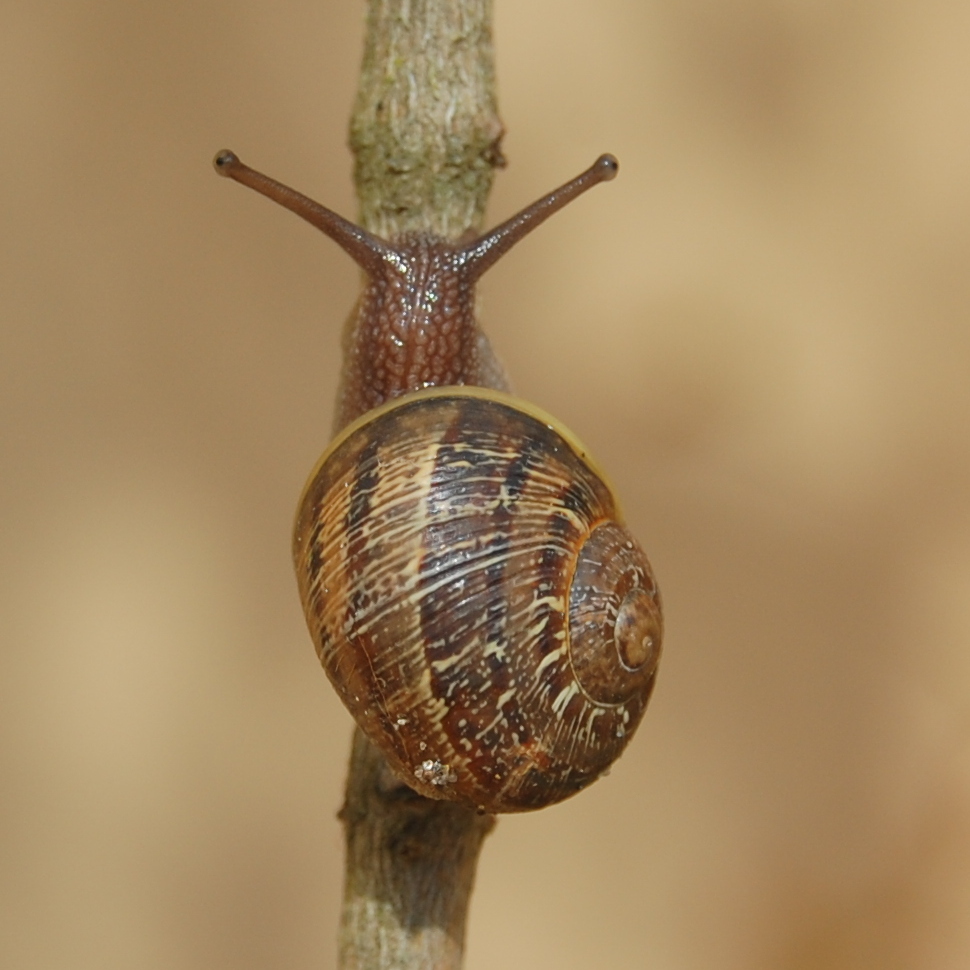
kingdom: Animalia
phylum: Mollusca
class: Gastropoda
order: Stylommatophora
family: Helicidae
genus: Cornu
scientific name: Cornu aspersum
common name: Brown garden snail
